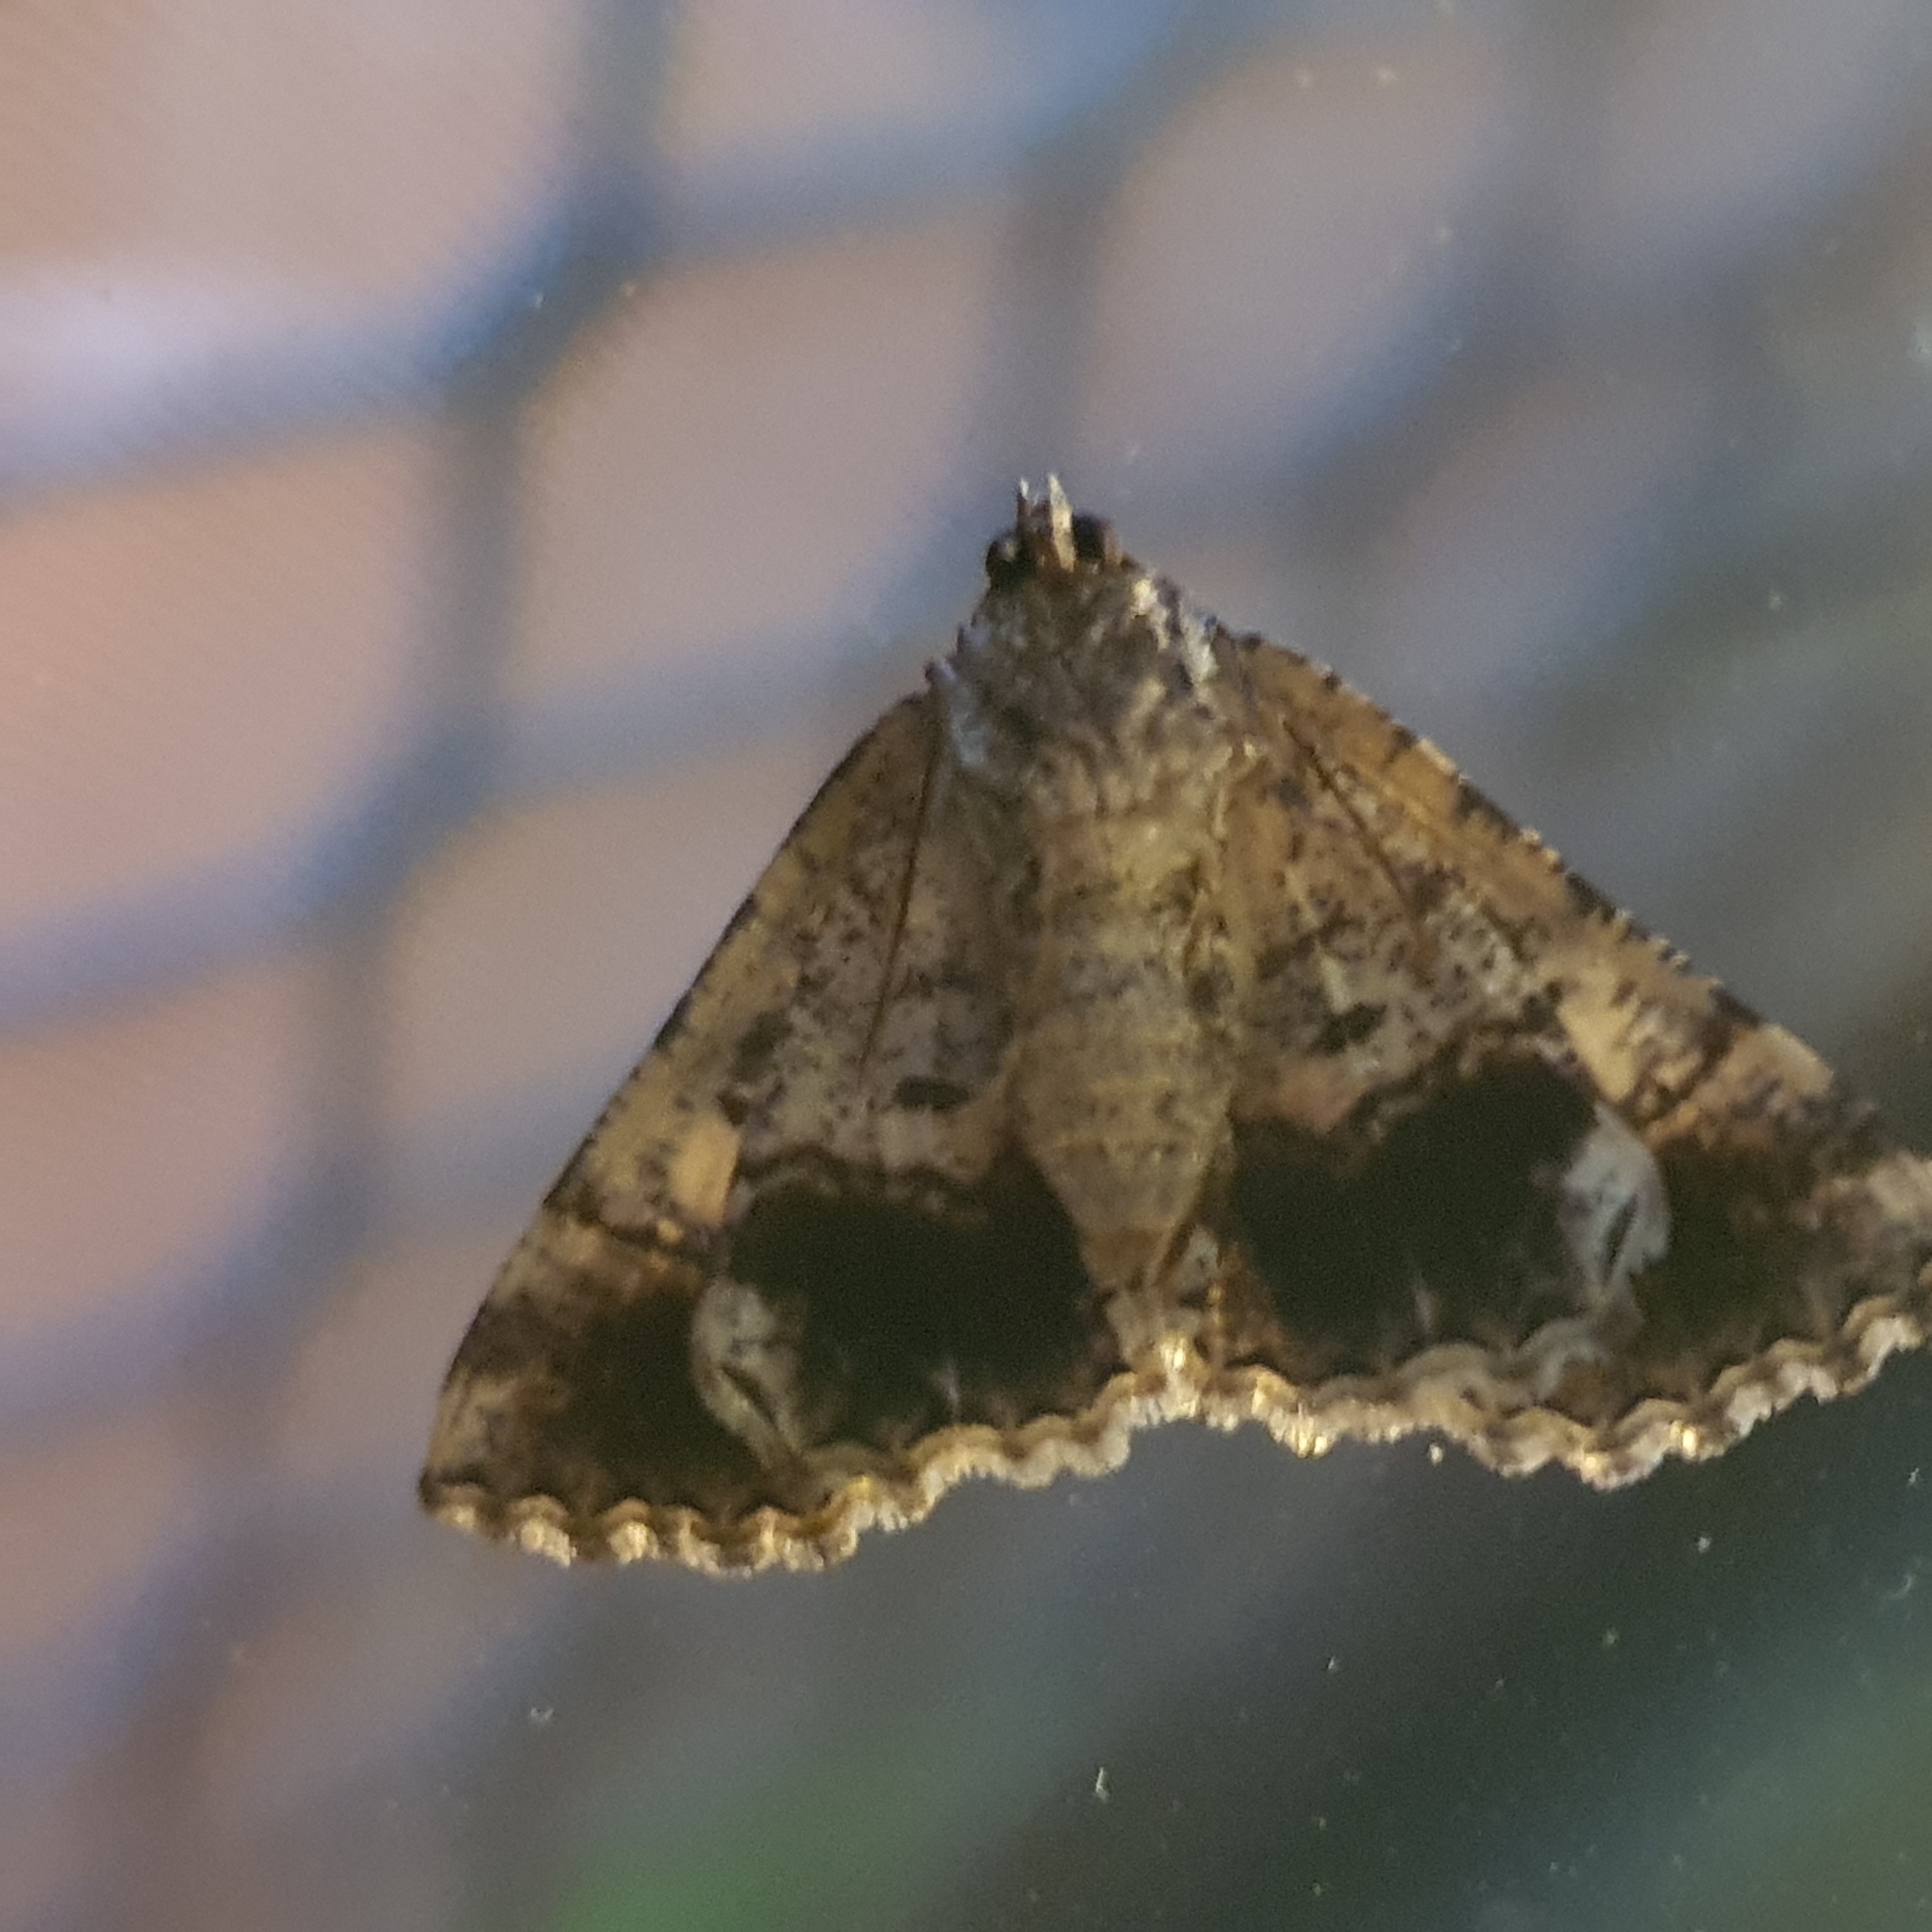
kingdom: Animalia
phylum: Arthropoda
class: Insecta
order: Lepidoptera
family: Geometridae
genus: Gastrina
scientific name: Gastrina cristaria
